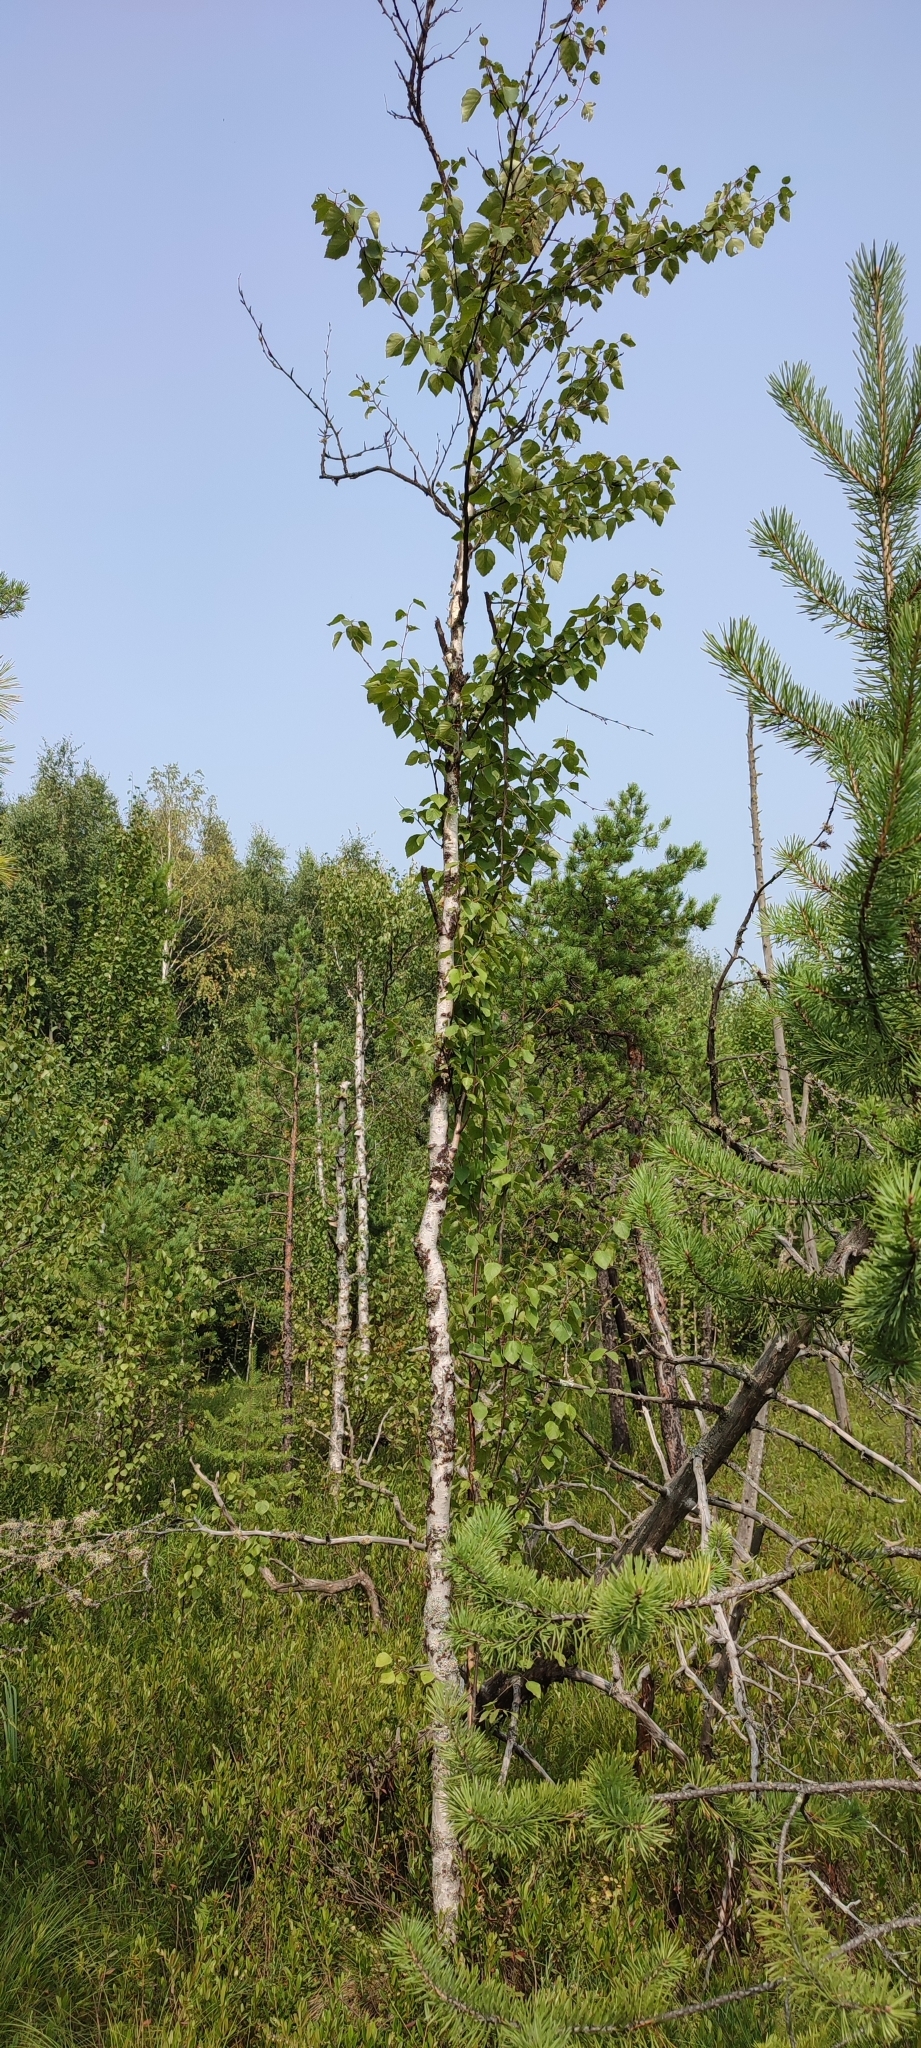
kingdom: Plantae
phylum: Tracheophyta
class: Magnoliopsida
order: Fagales
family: Betulaceae
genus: Betula
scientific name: Betula pubescens
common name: Downy birch
